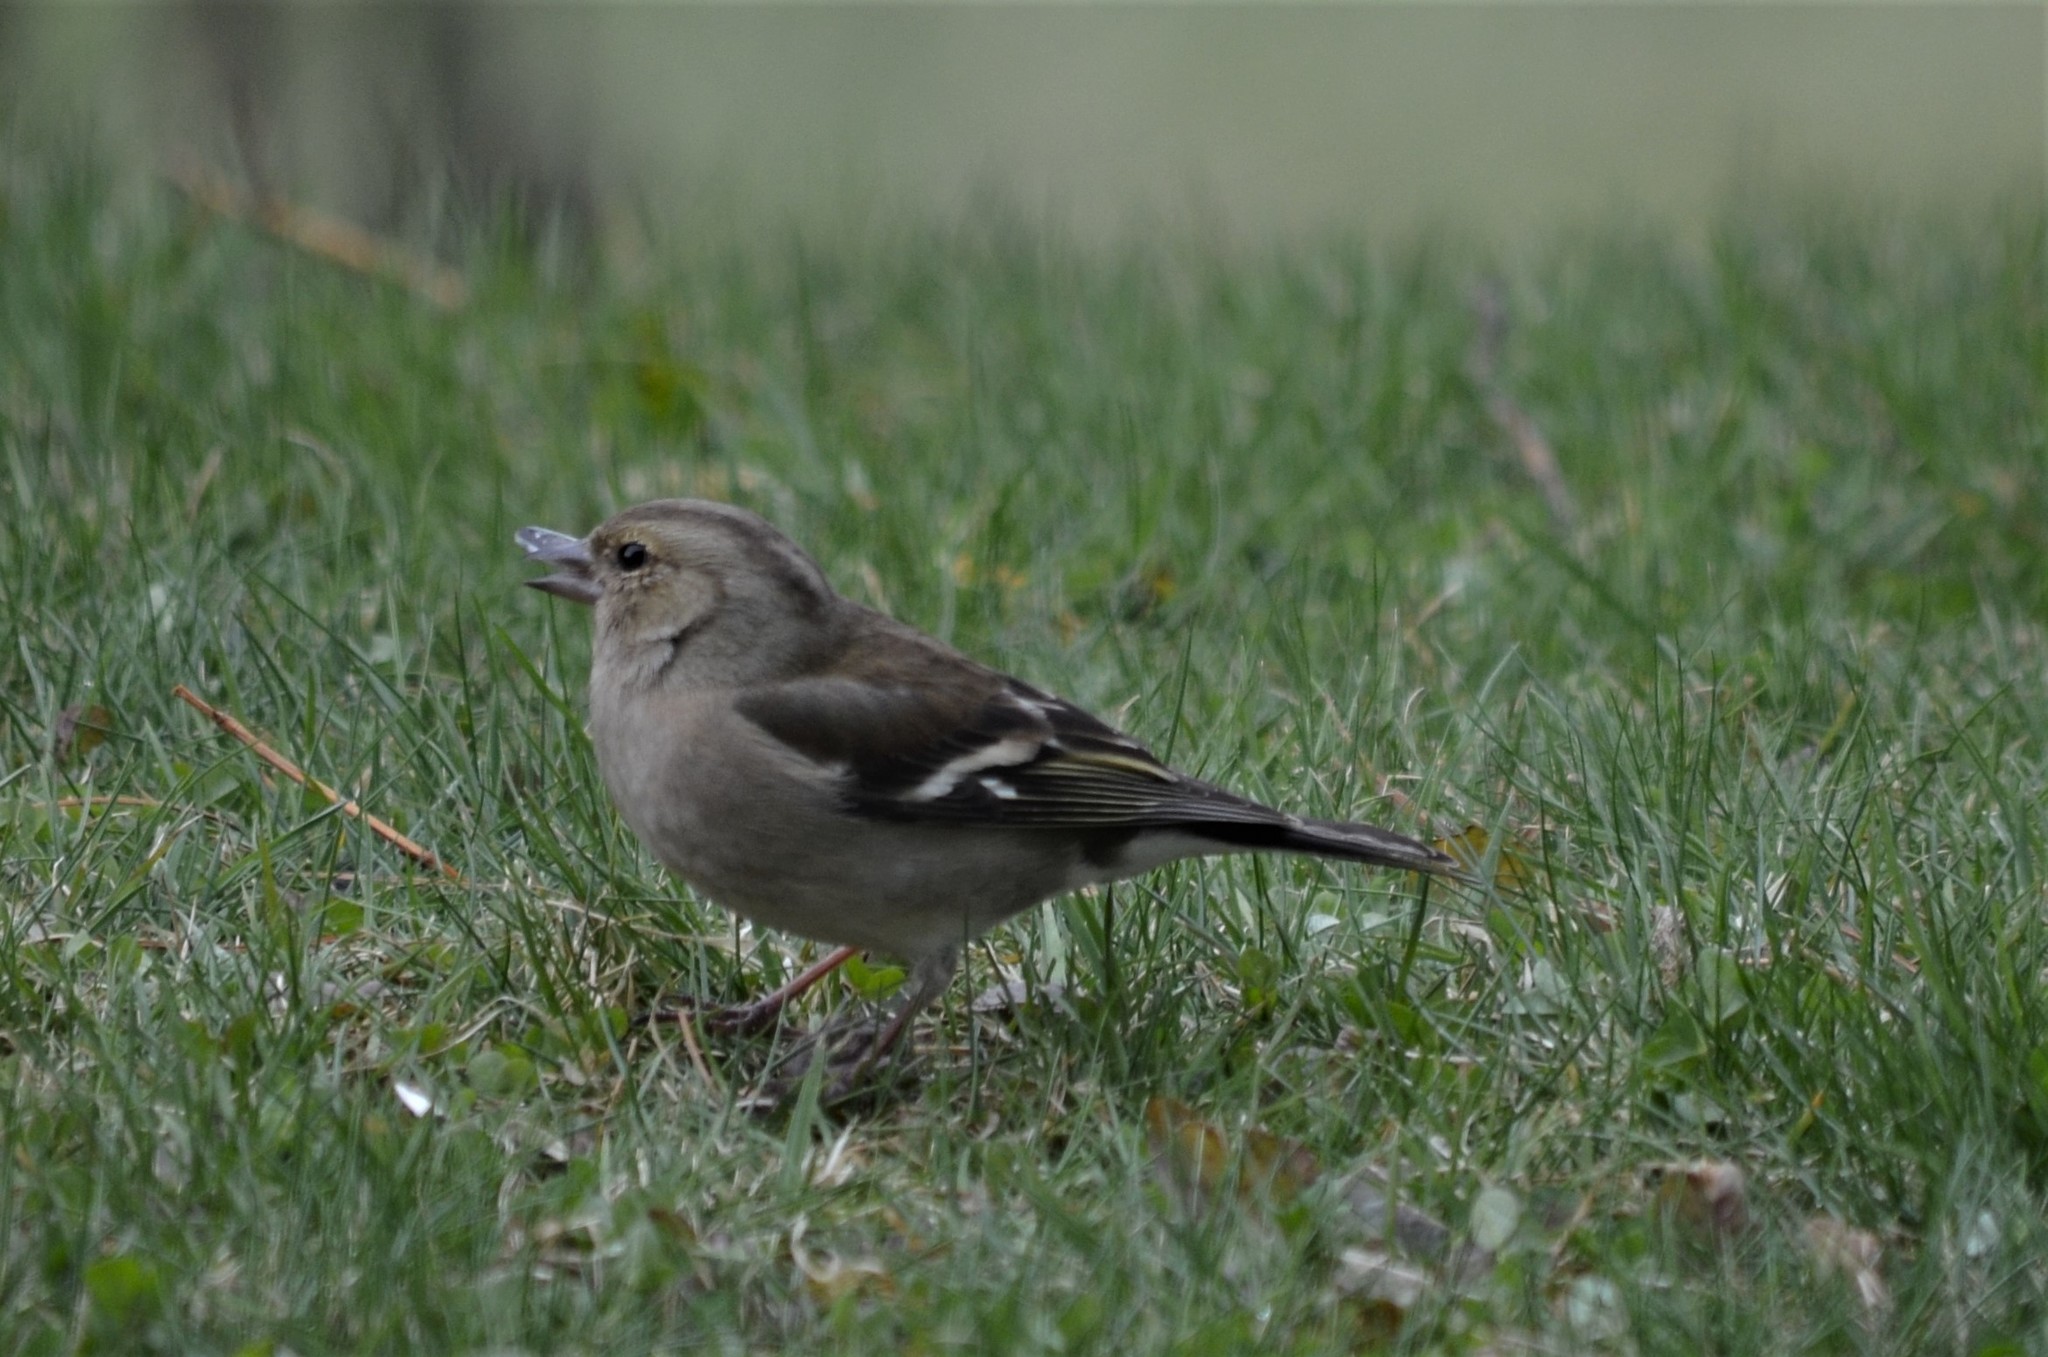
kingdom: Animalia
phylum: Chordata
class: Aves
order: Passeriformes
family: Fringillidae
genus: Fringilla
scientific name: Fringilla coelebs
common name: Common chaffinch
